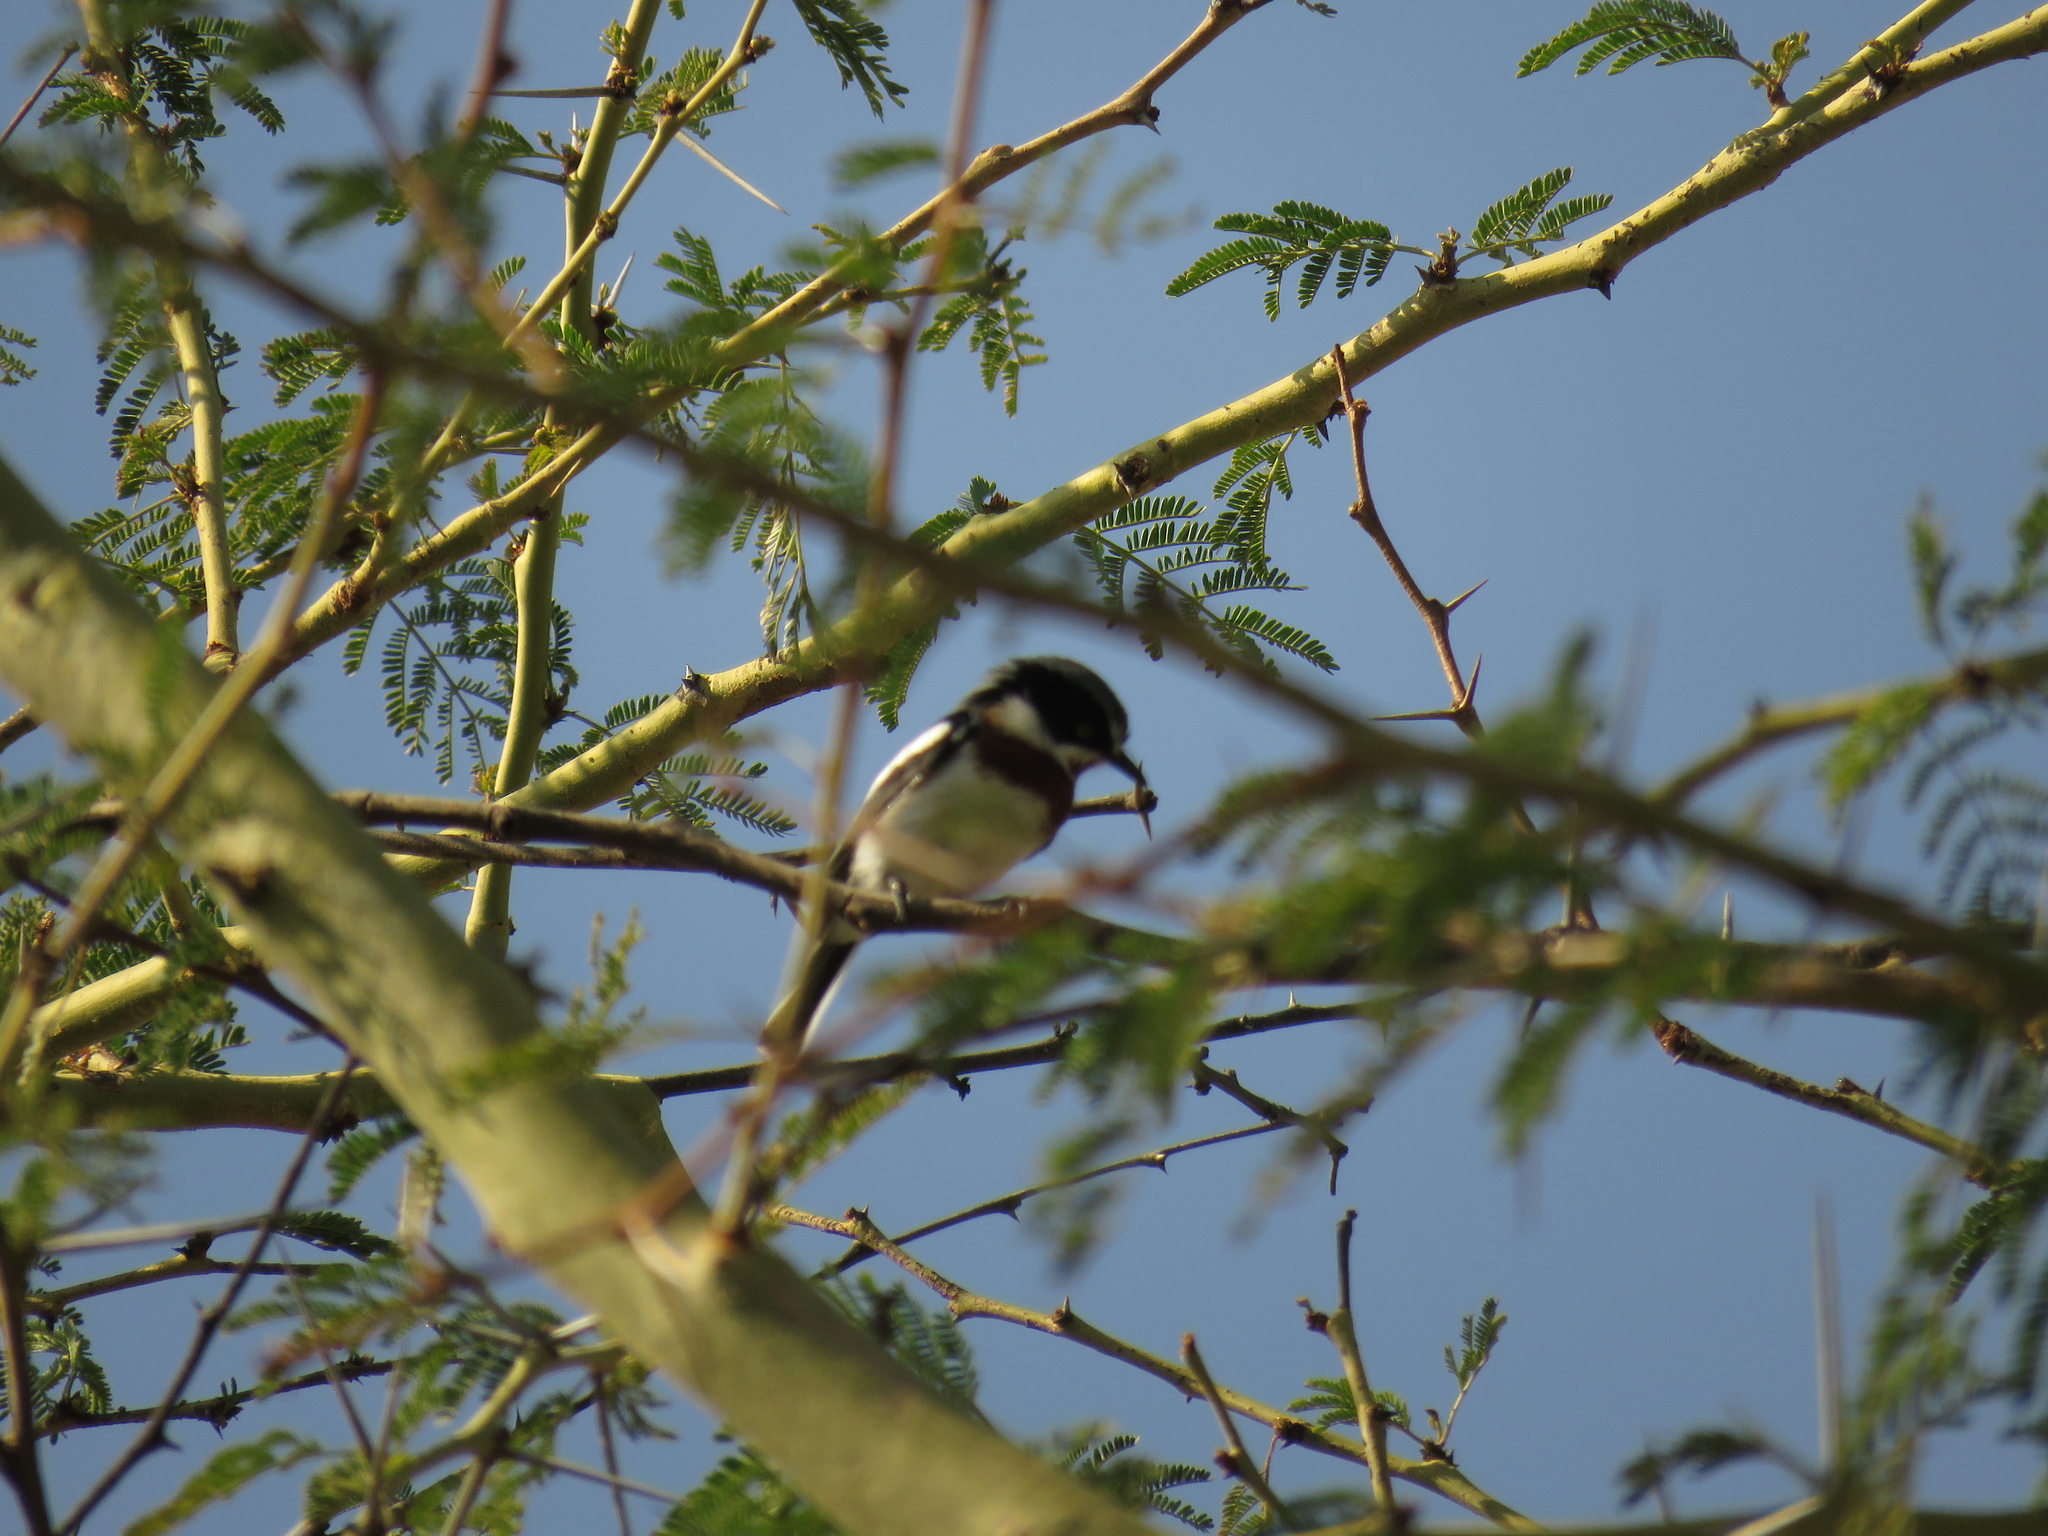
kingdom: Animalia
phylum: Chordata
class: Aves
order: Passeriformes
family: Platysteiridae
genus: Batis
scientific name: Batis molitor
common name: Chinspot batis
